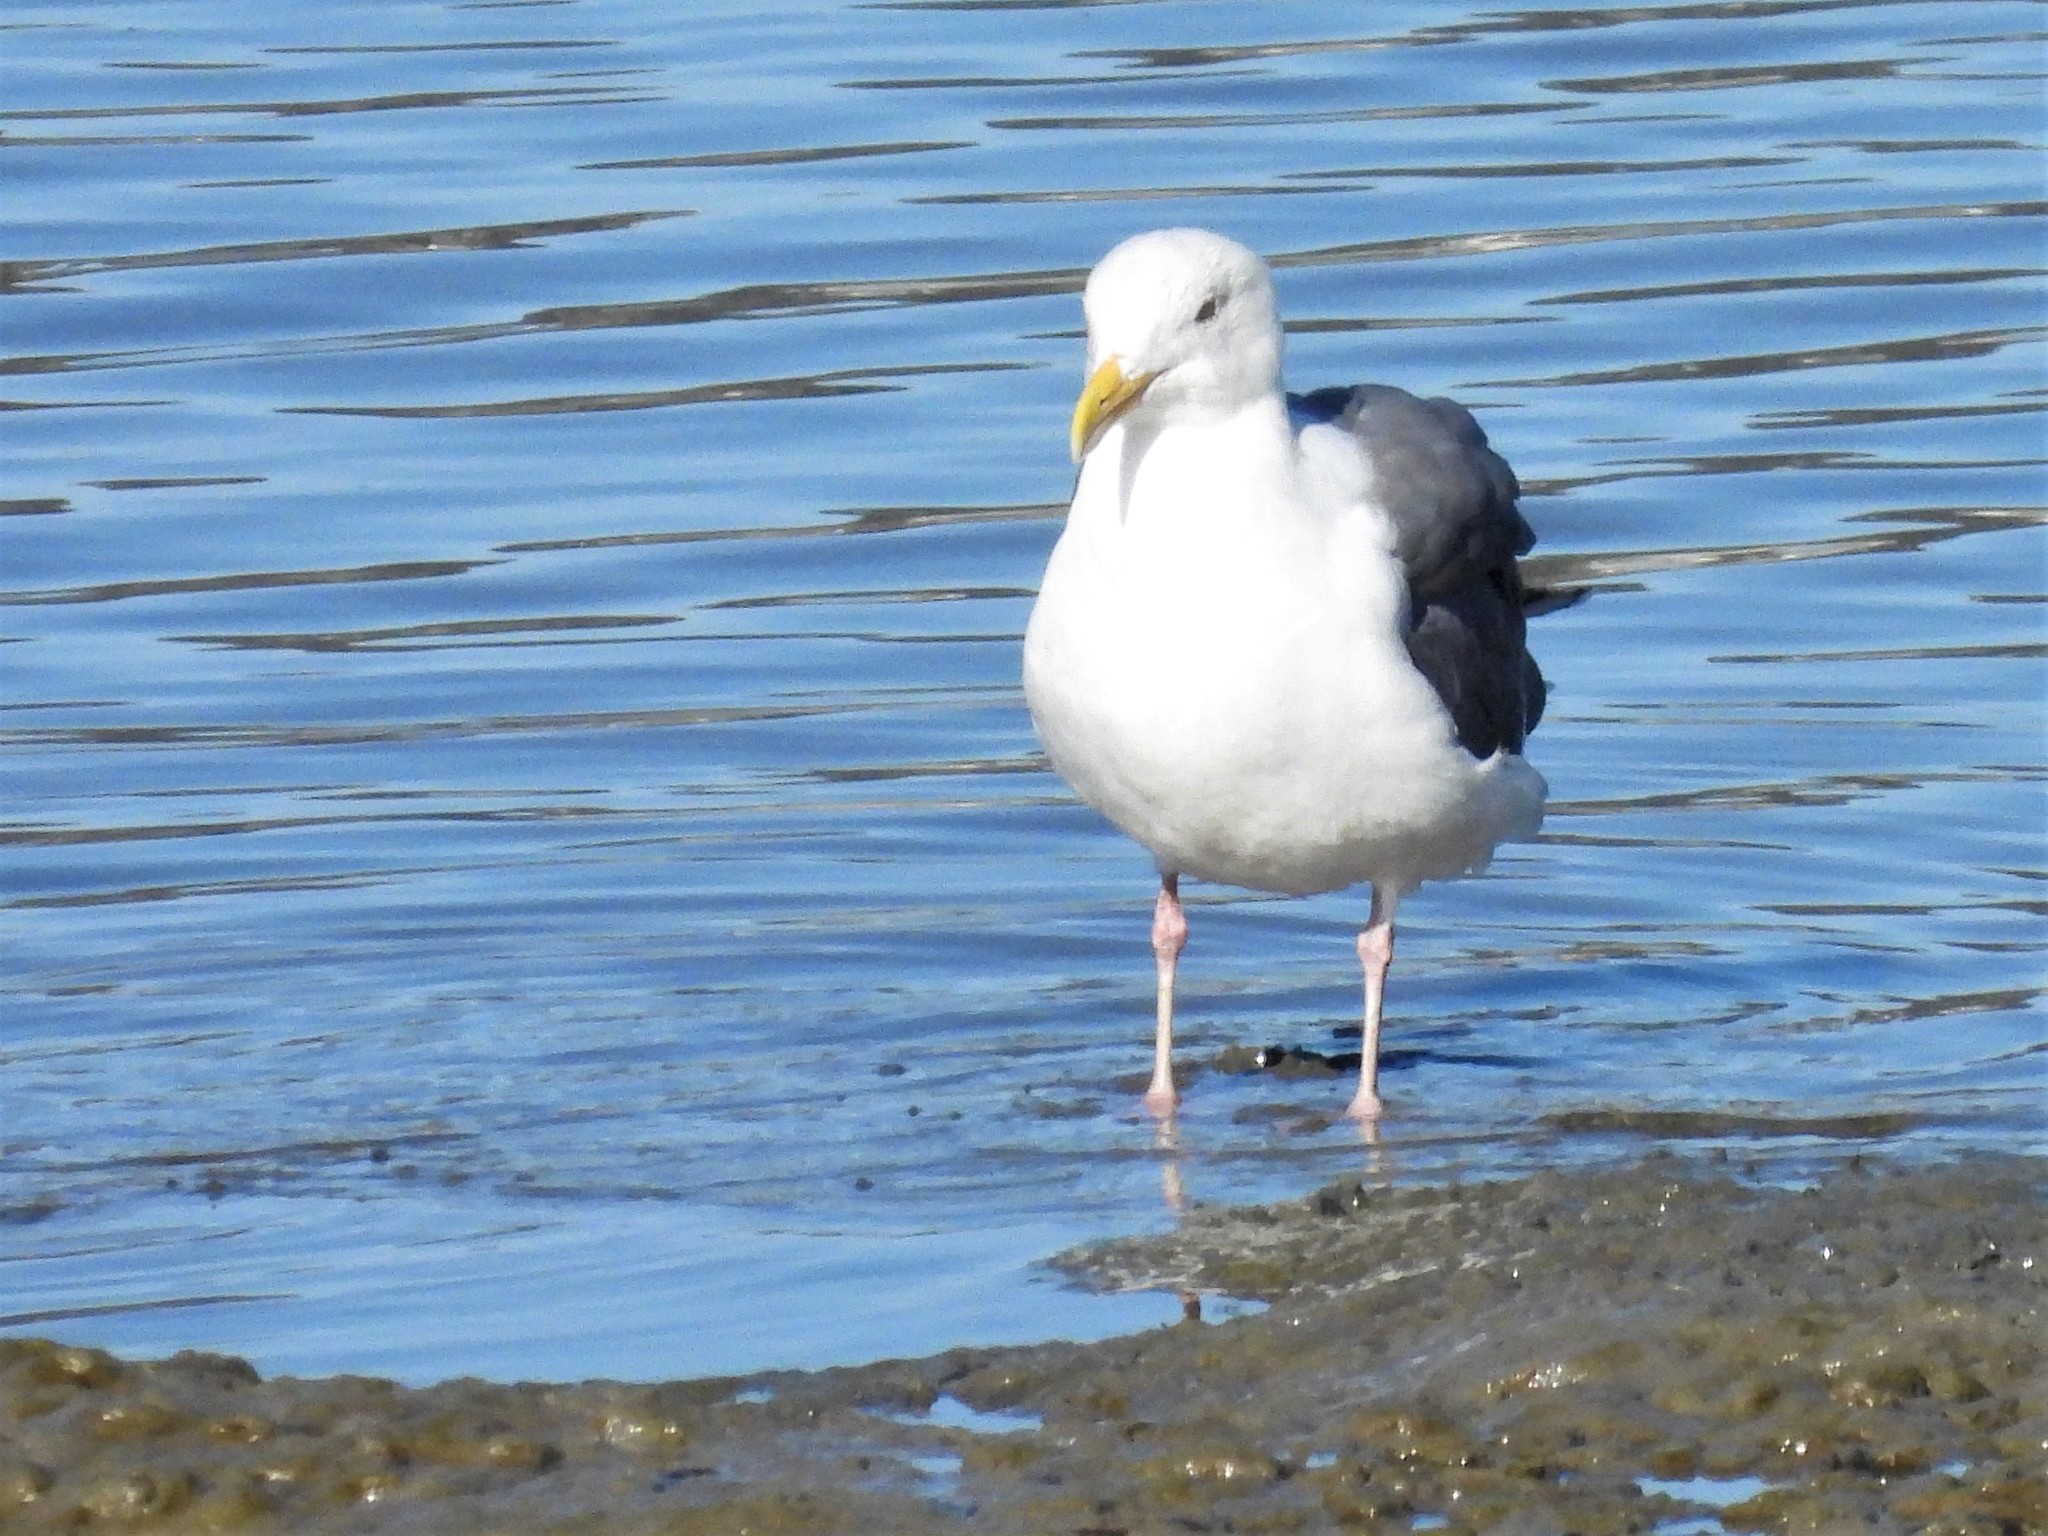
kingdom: Animalia
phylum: Chordata
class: Aves
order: Charadriiformes
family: Laridae
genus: Larus
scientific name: Larus occidentalis
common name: Western gull
